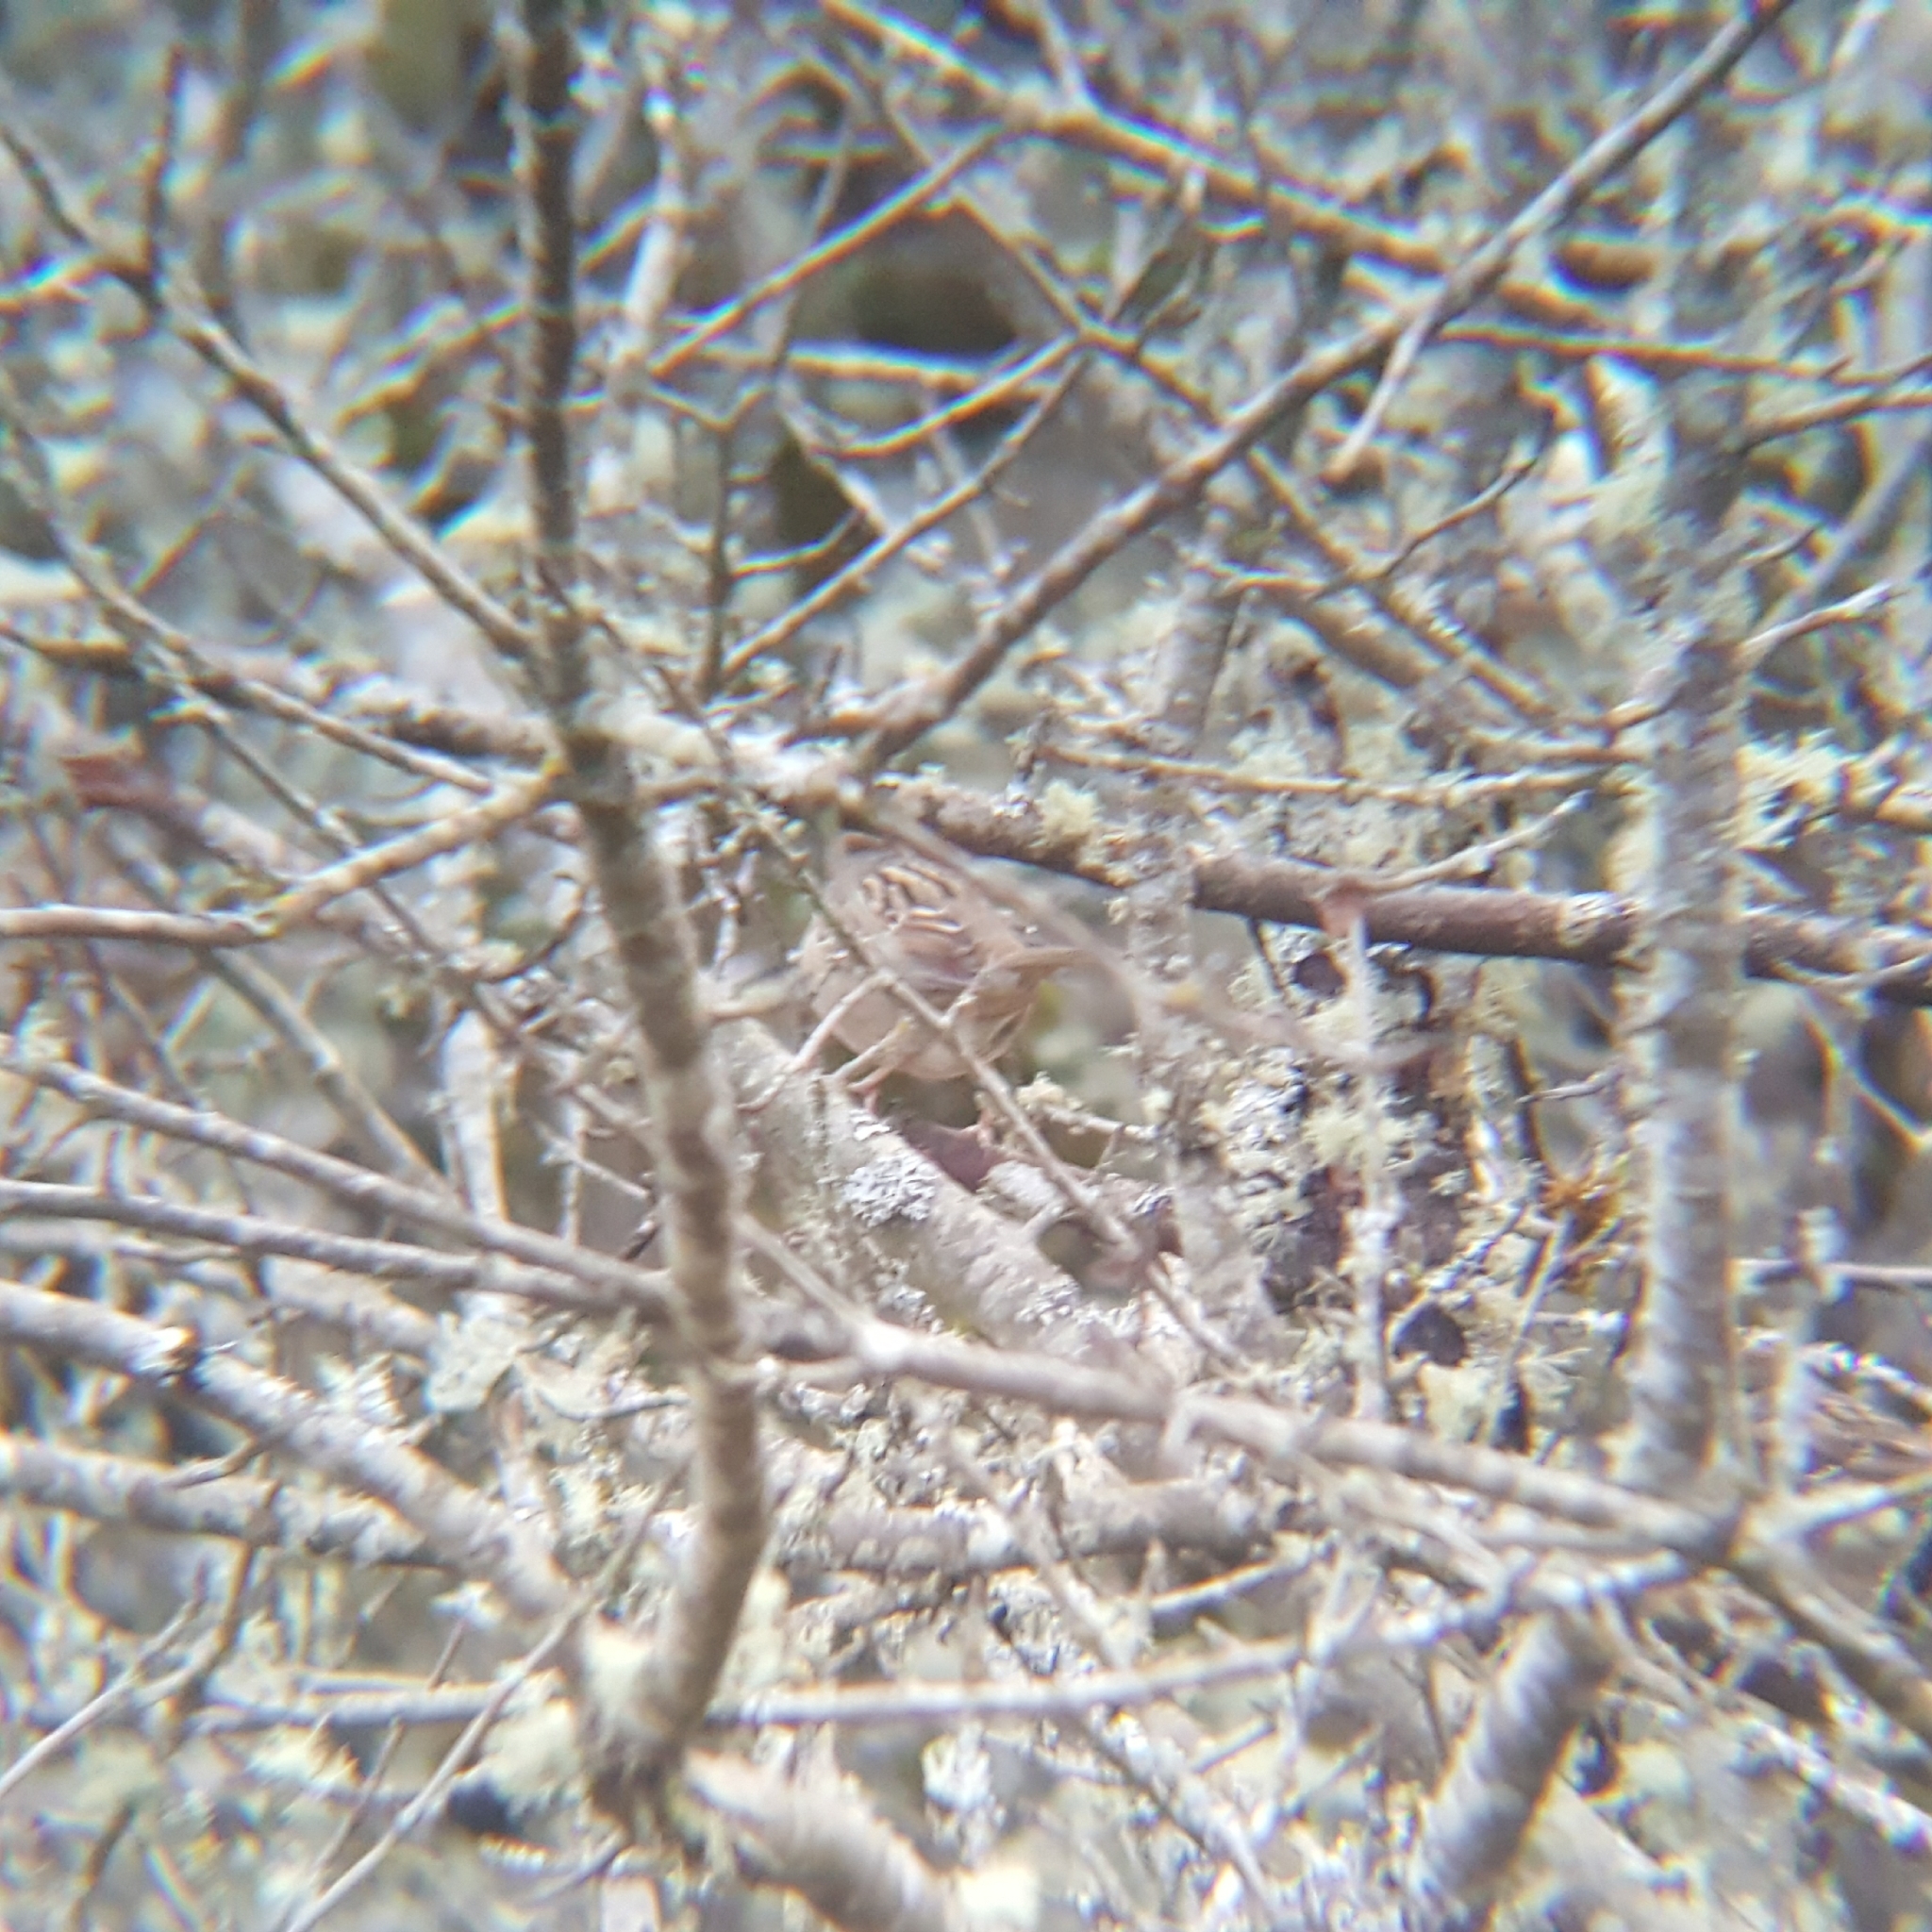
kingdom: Animalia
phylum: Chordata
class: Aves
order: Passeriformes
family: Passerellidae
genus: Zonotrichia
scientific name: Zonotrichia atricapilla
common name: Golden-crowned sparrow
